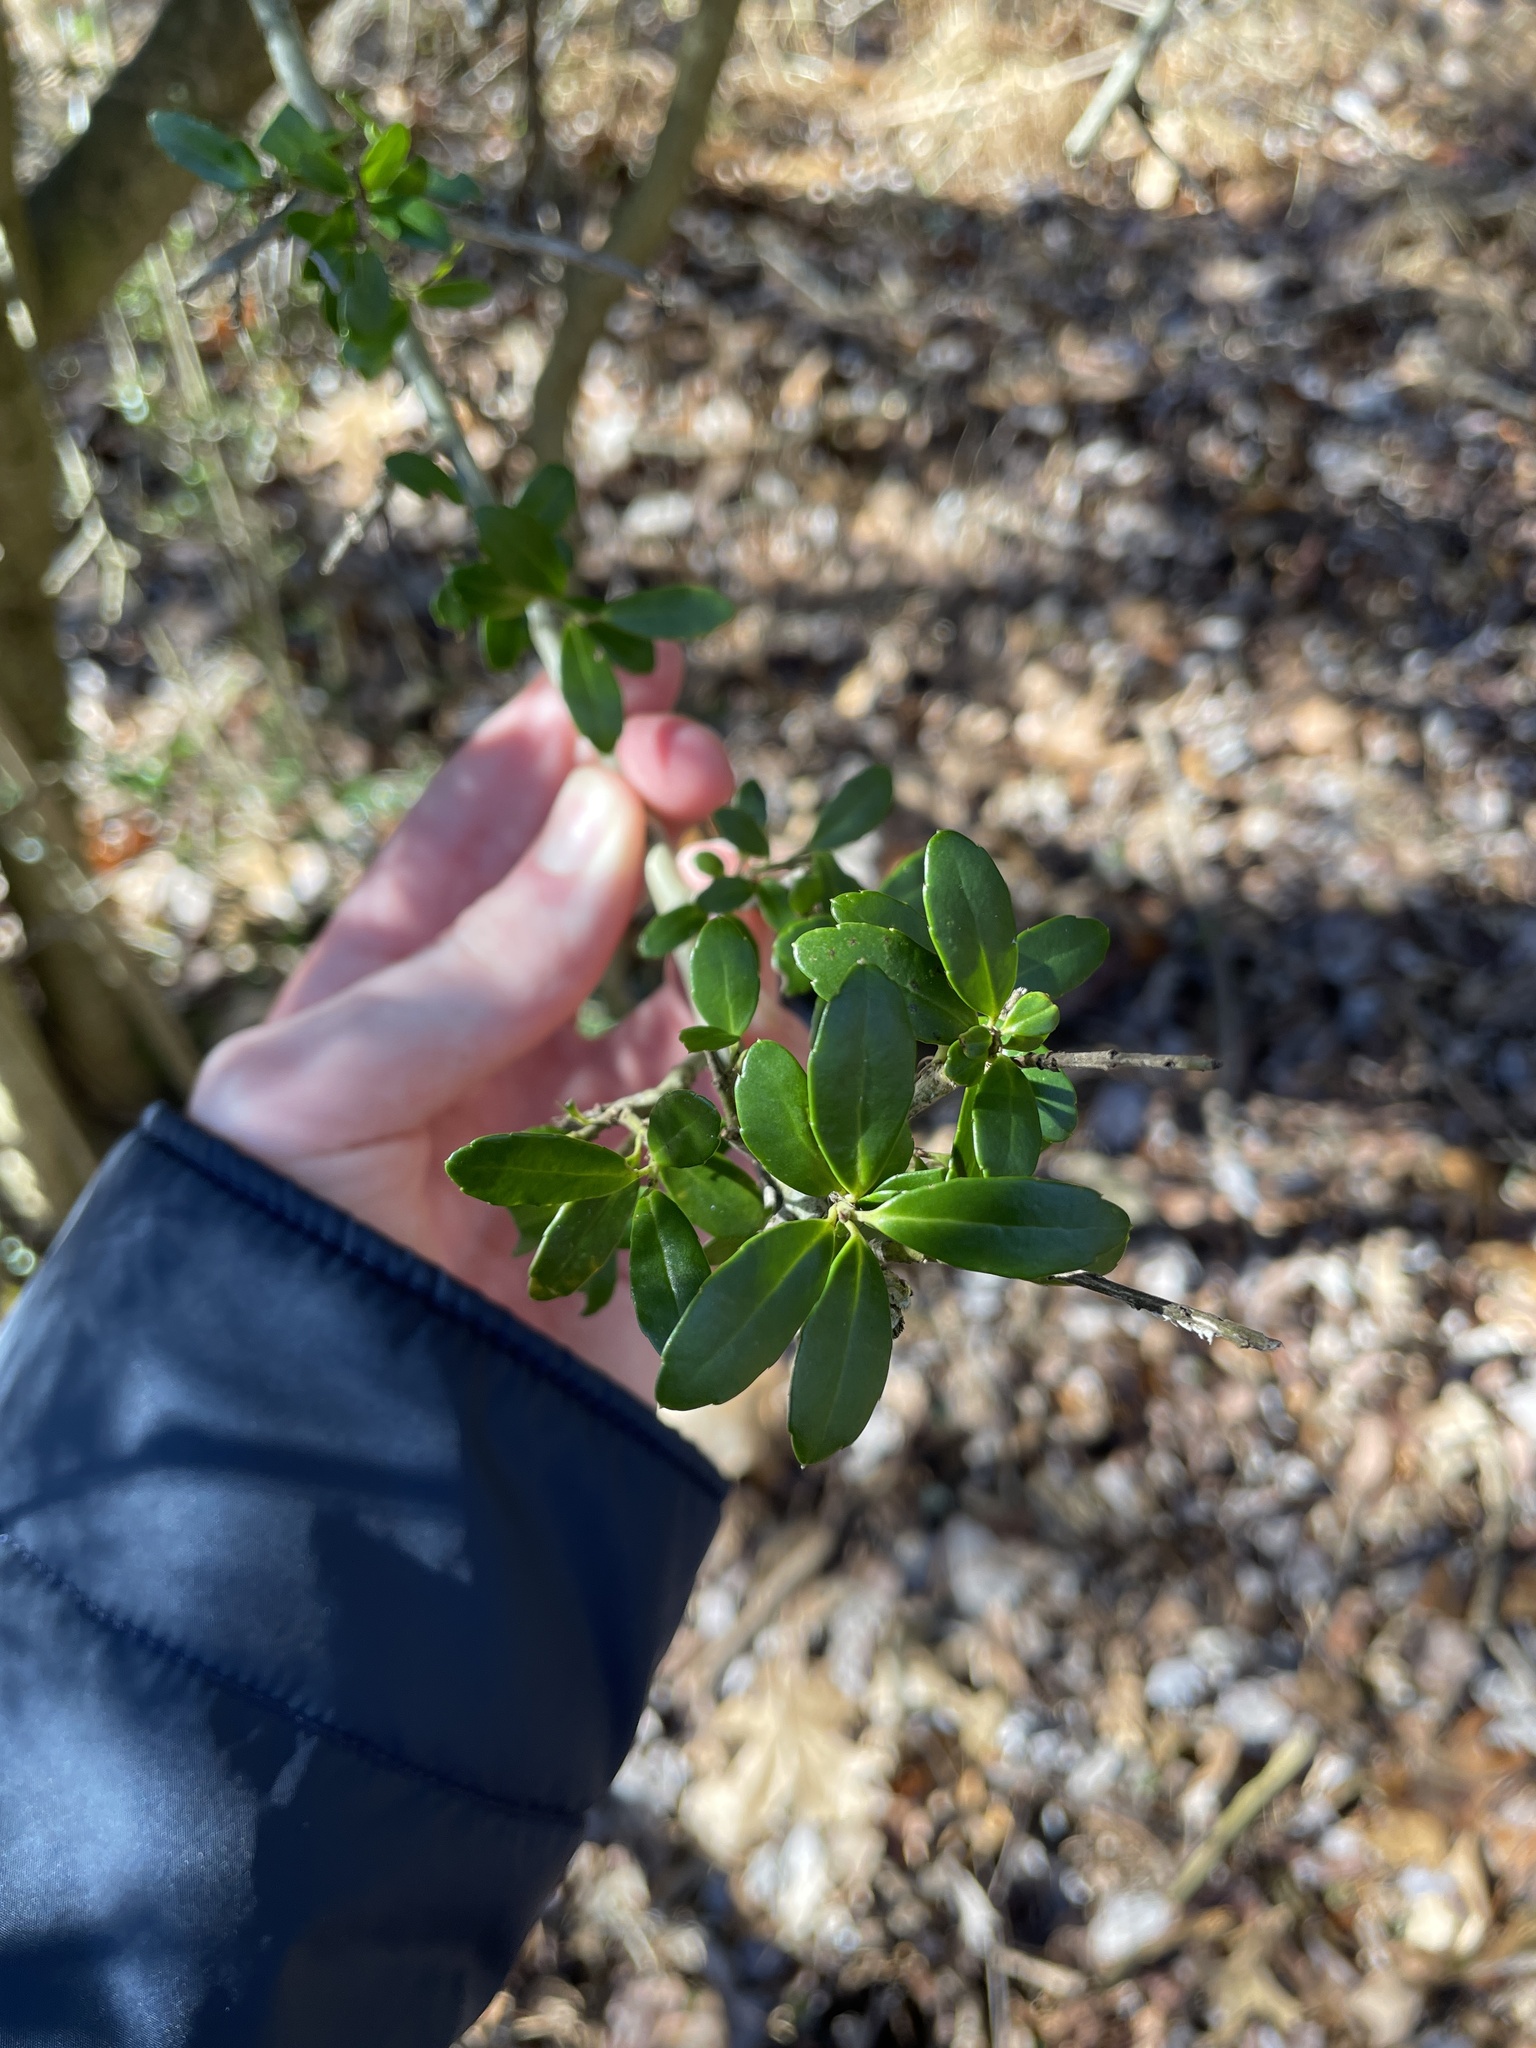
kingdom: Plantae
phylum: Tracheophyta
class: Magnoliopsida
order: Aquifoliales
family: Aquifoliaceae
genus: Ilex
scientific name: Ilex crenata
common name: Japanese holly
